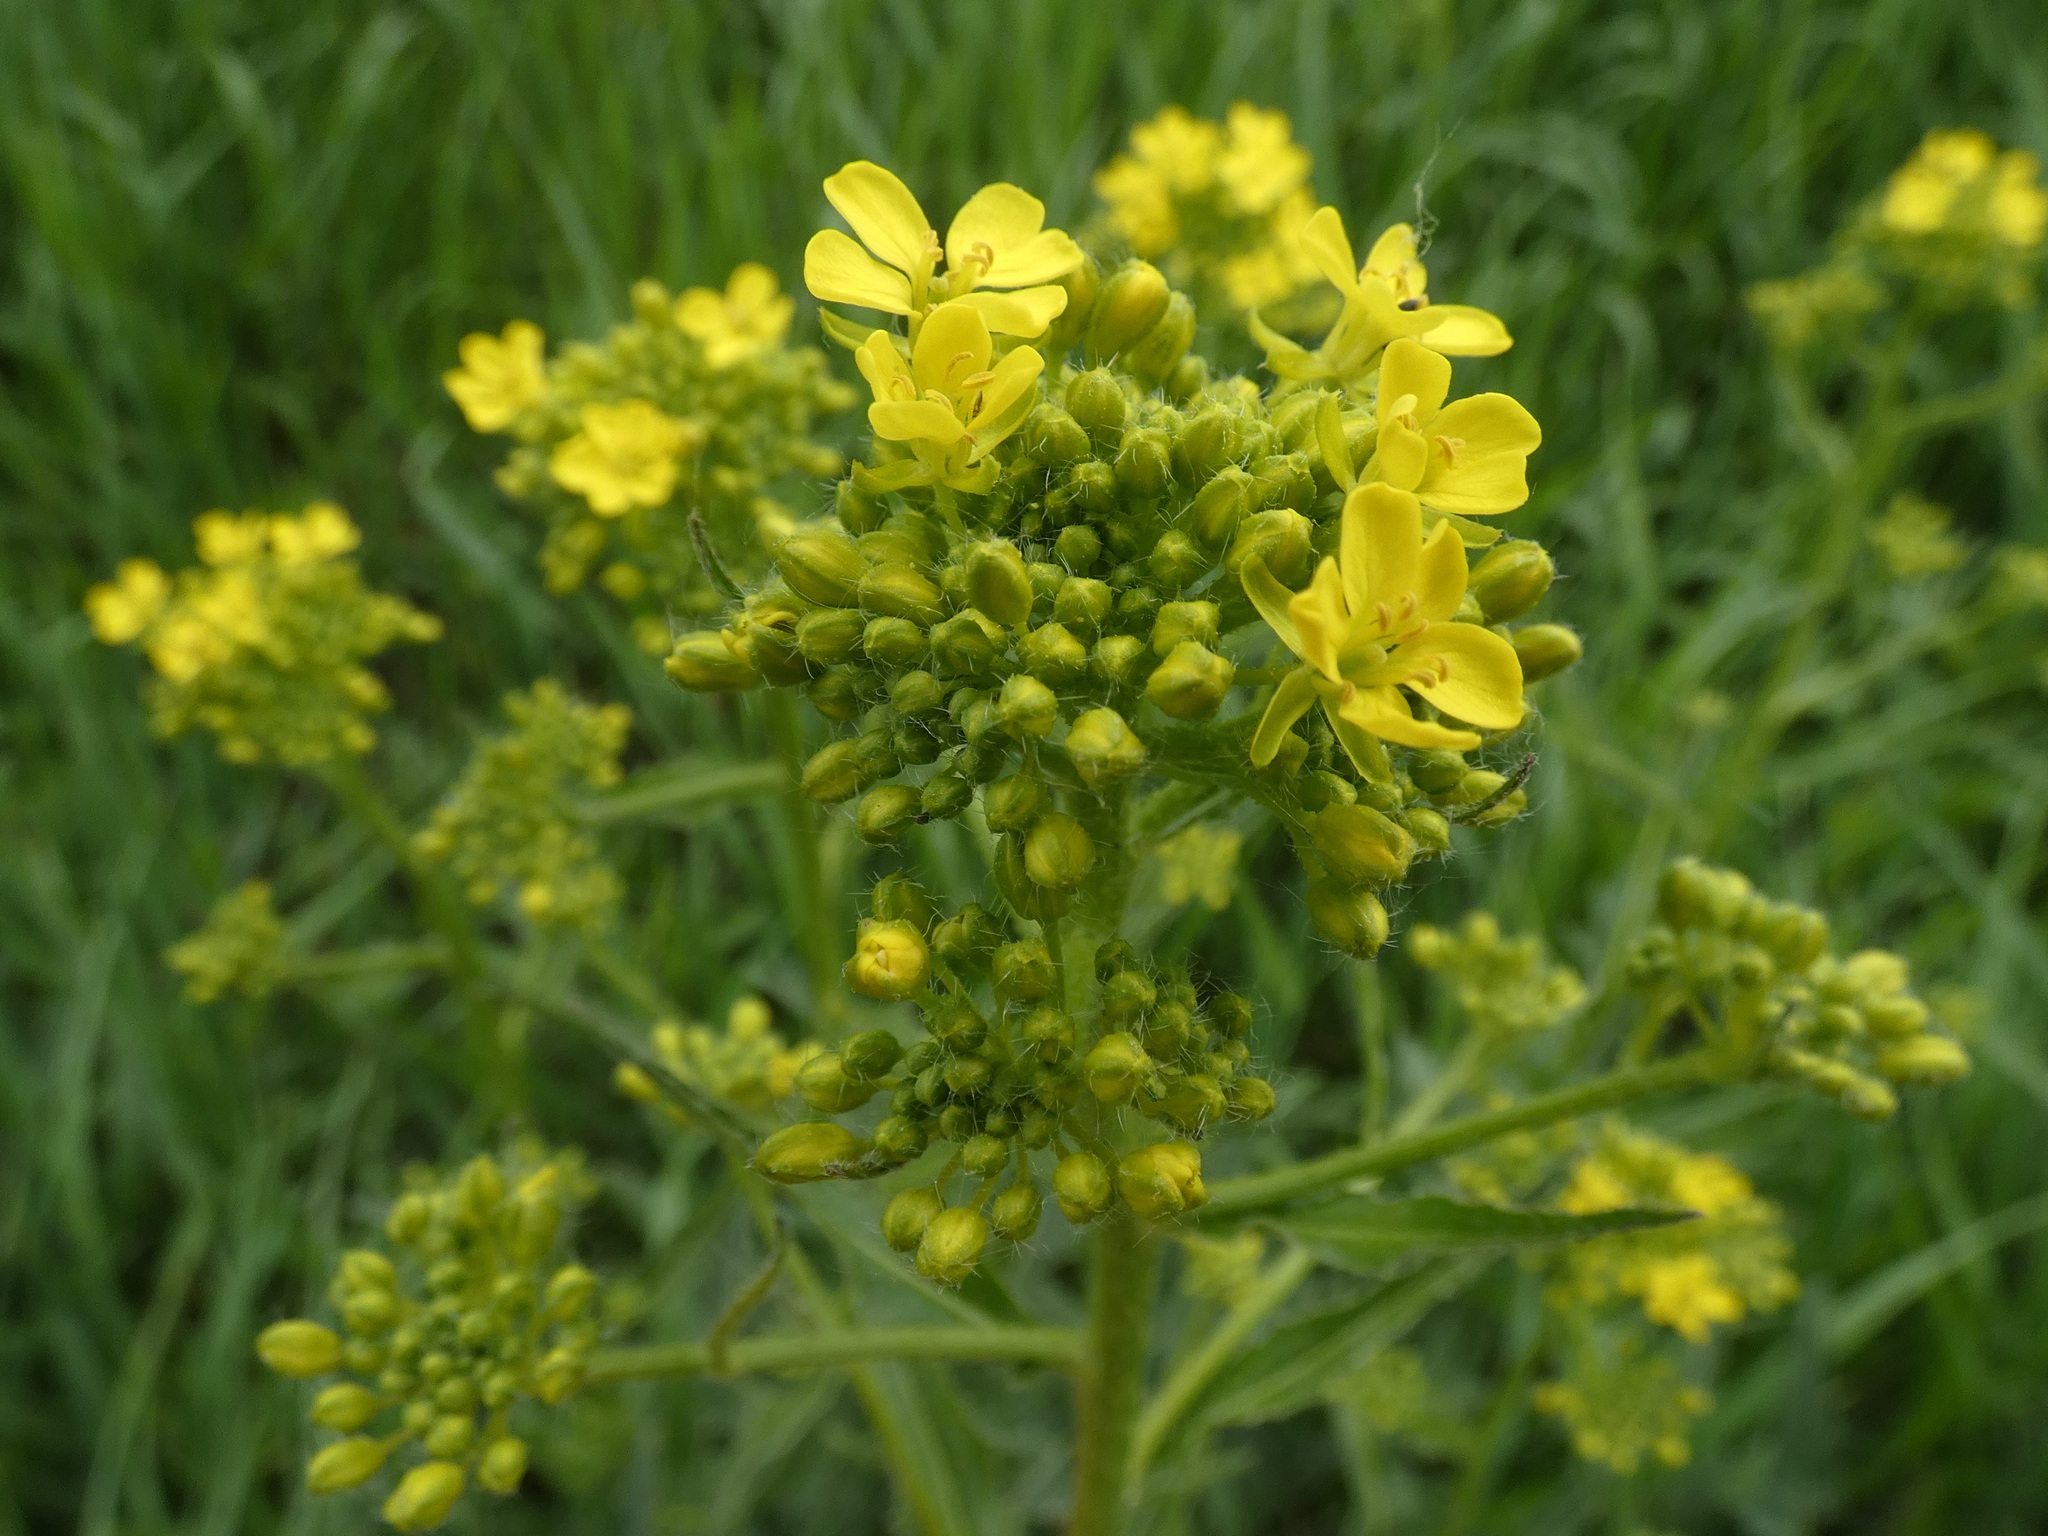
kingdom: Plantae
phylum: Tracheophyta
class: Magnoliopsida
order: Brassicales
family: Brassicaceae
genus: Bunias
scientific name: Bunias orientalis
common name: Warty-cabbage
